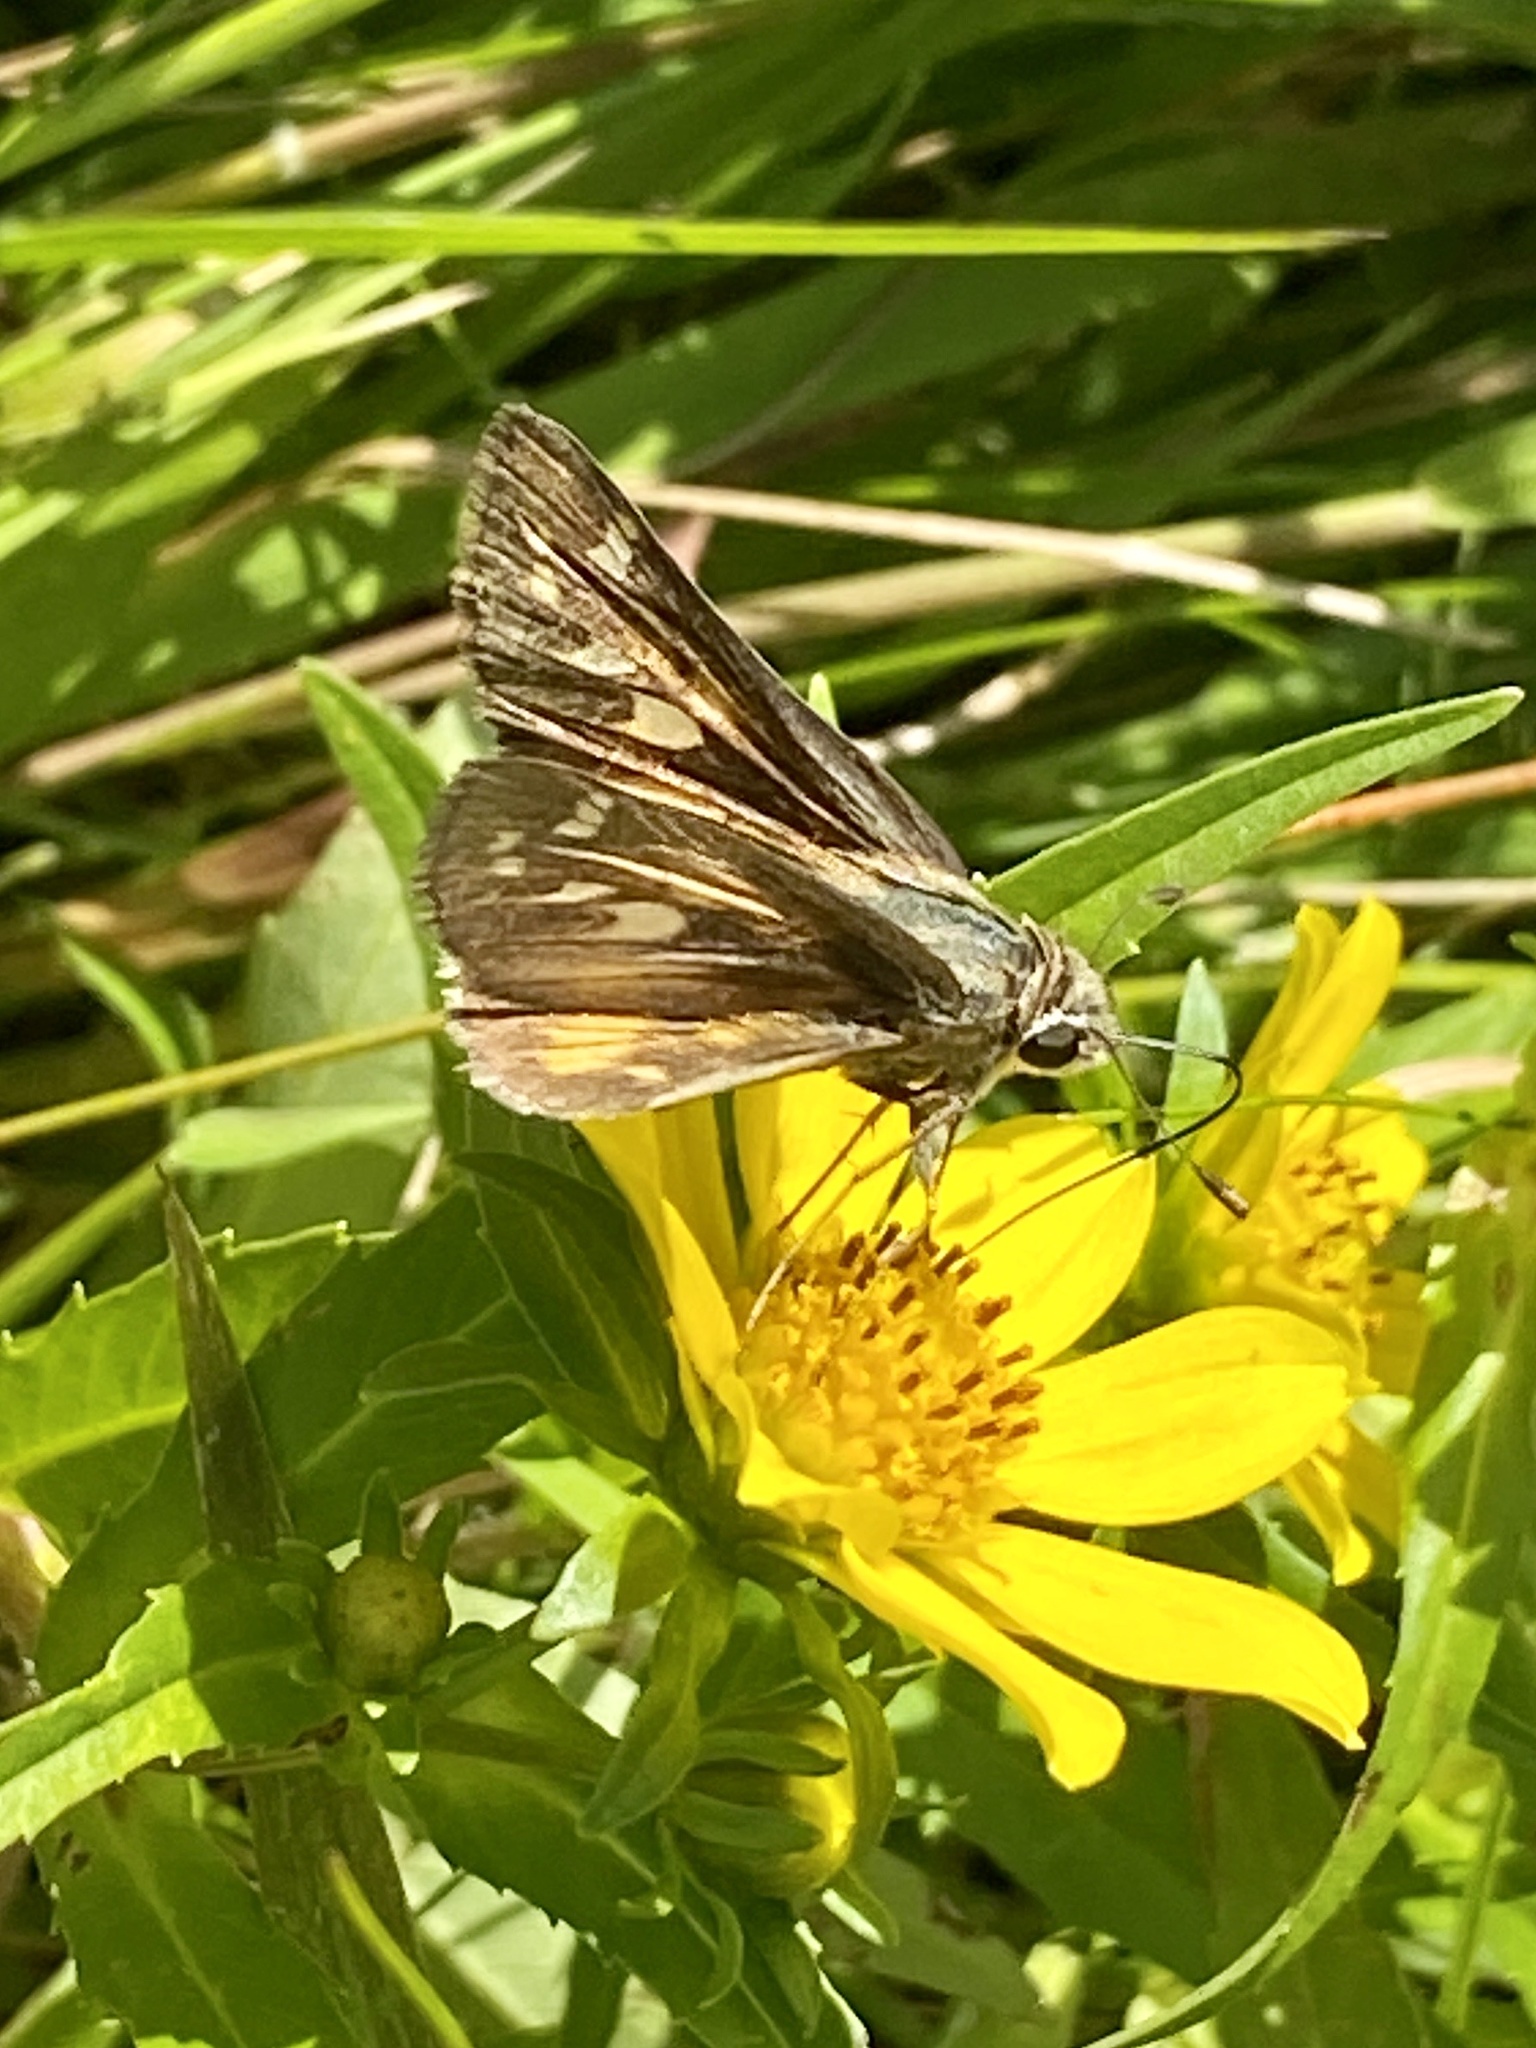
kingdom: Animalia
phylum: Arthropoda
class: Insecta
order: Lepidoptera
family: Hesperiidae
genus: Atalopedes
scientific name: Atalopedes
